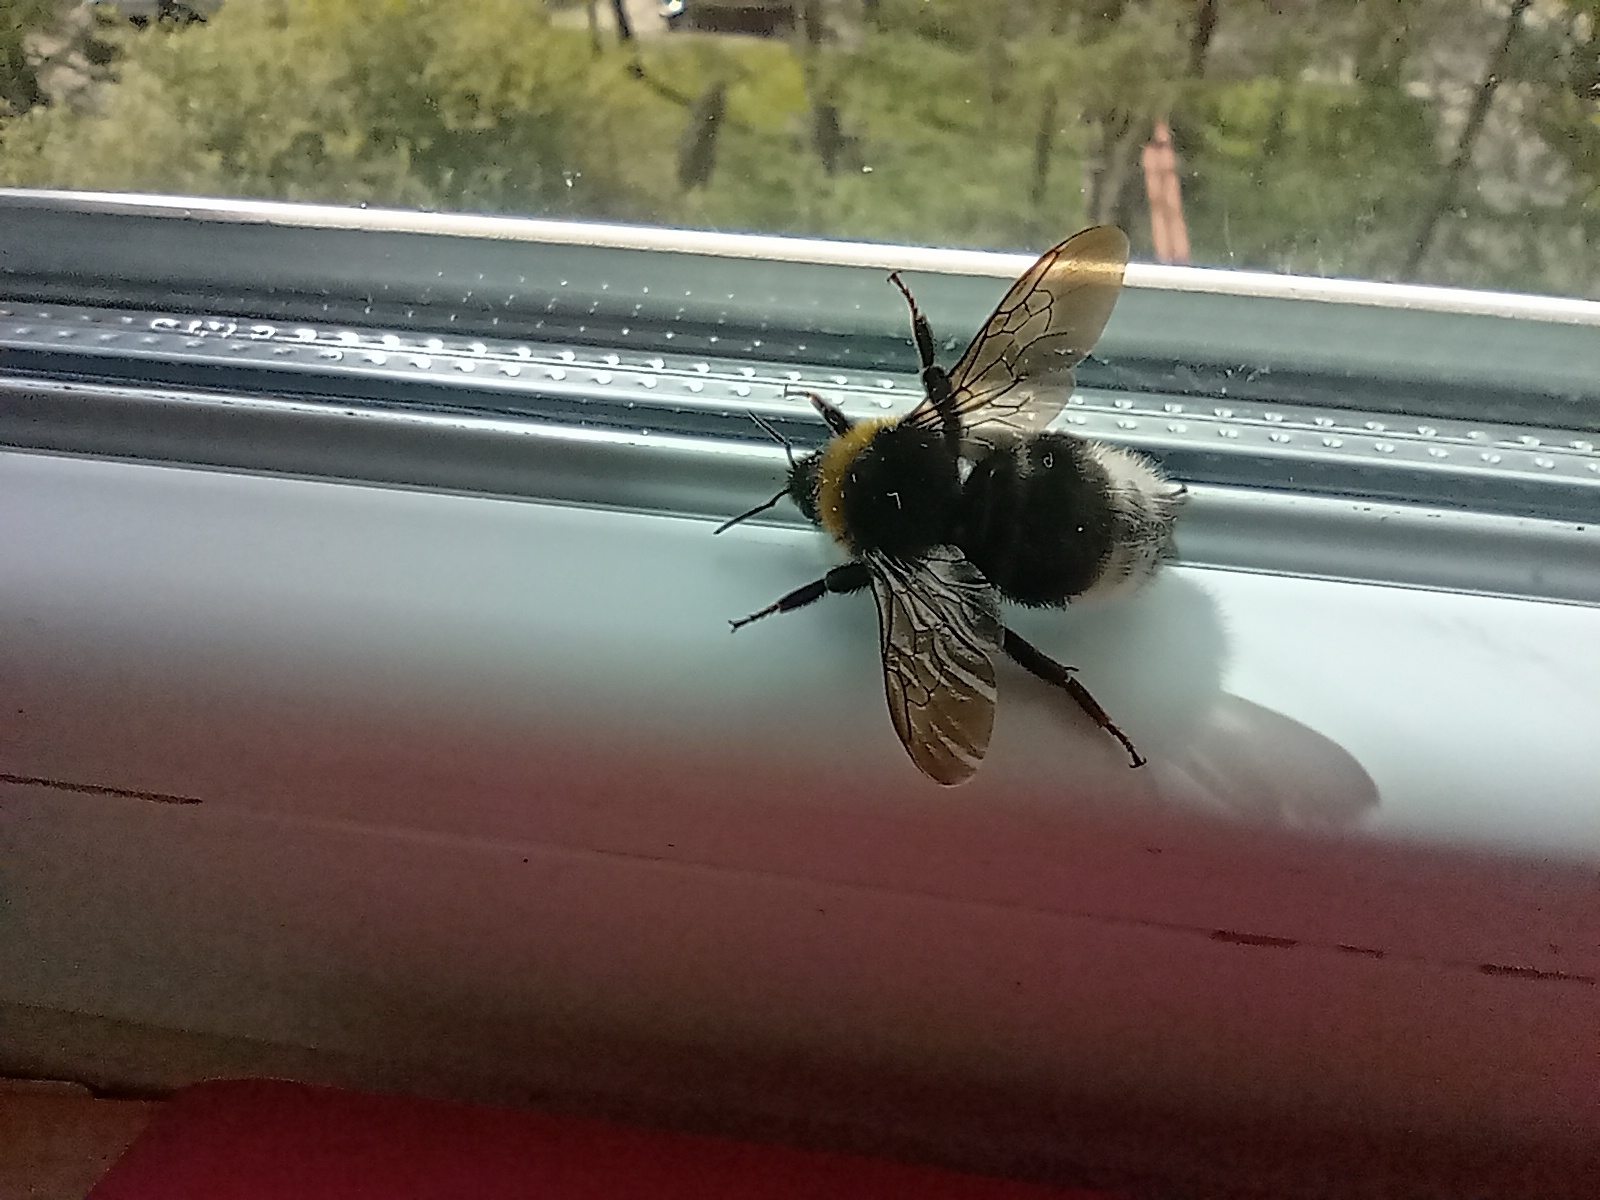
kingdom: Animalia
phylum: Arthropoda
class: Insecta
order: Hymenoptera
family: Apidae
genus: Bombus
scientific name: Bombus sylvestris
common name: Forest cuckoo bee
